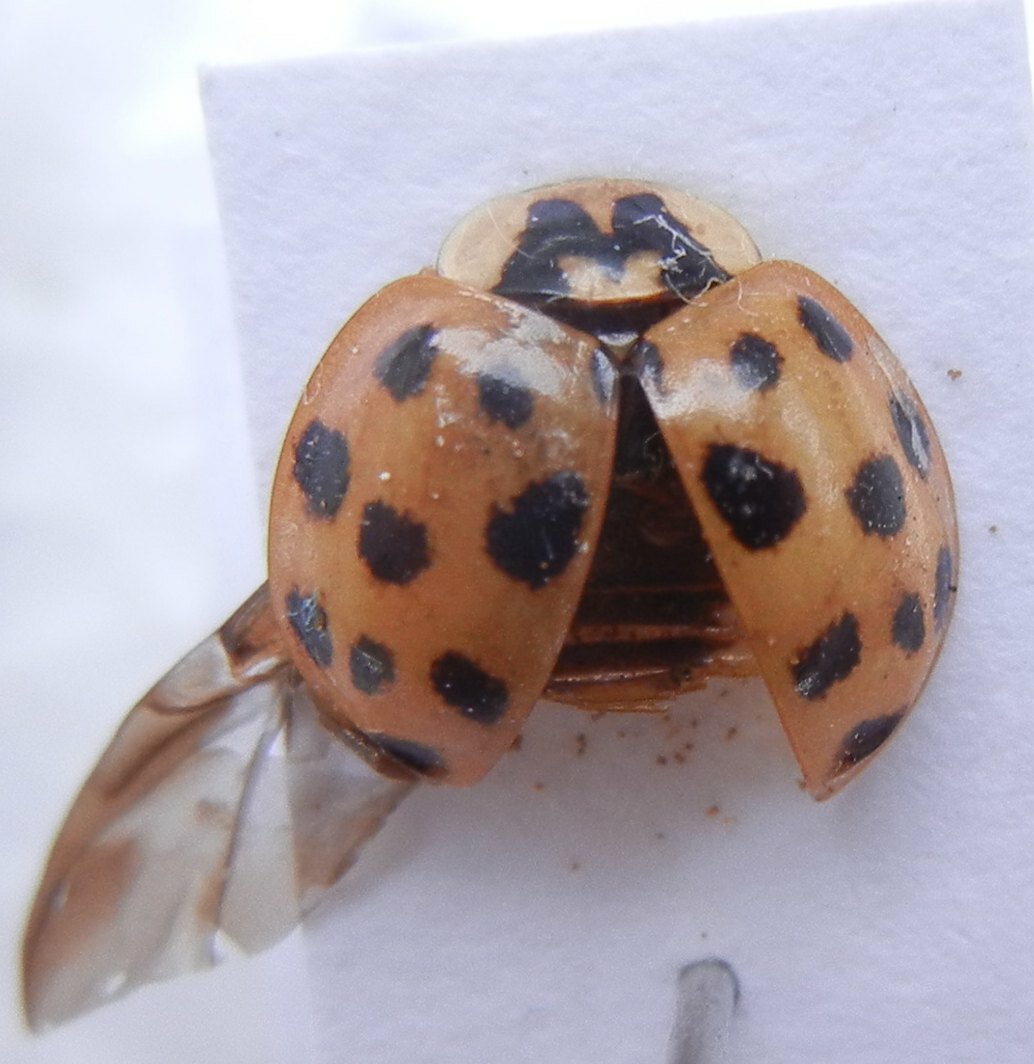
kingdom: Animalia
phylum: Arthropoda
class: Insecta
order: Coleoptera
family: Coccinellidae
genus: Harmonia
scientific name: Harmonia axyridis
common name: Harlequin ladybird
